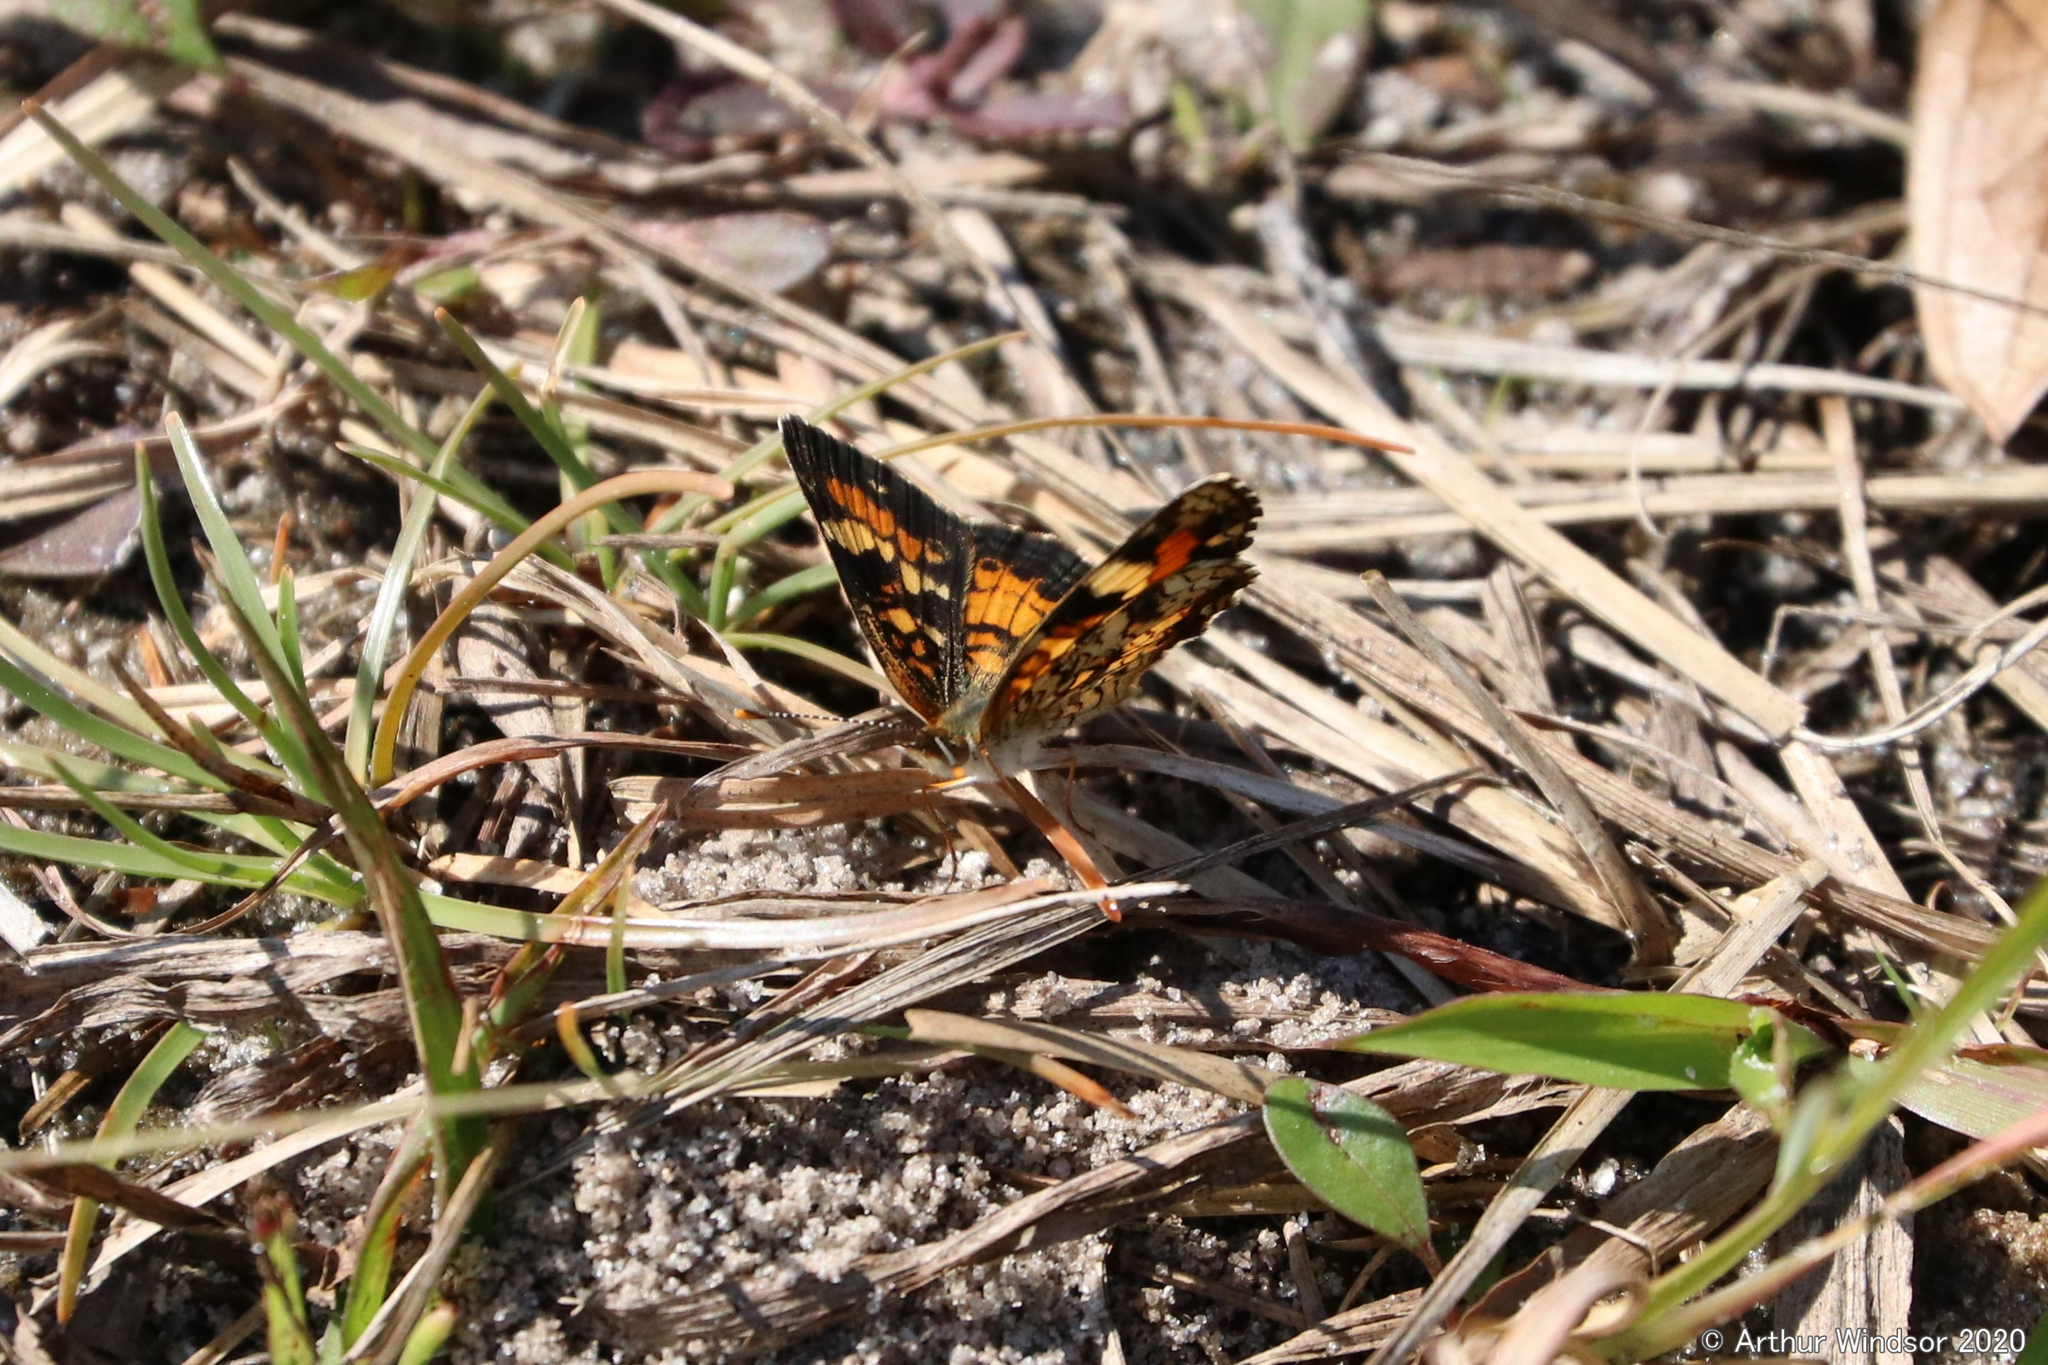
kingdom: Animalia
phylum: Arthropoda
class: Insecta
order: Lepidoptera
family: Nymphalidae
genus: Phyciodes
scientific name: Phyciodes phaon
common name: Phaon crescent
